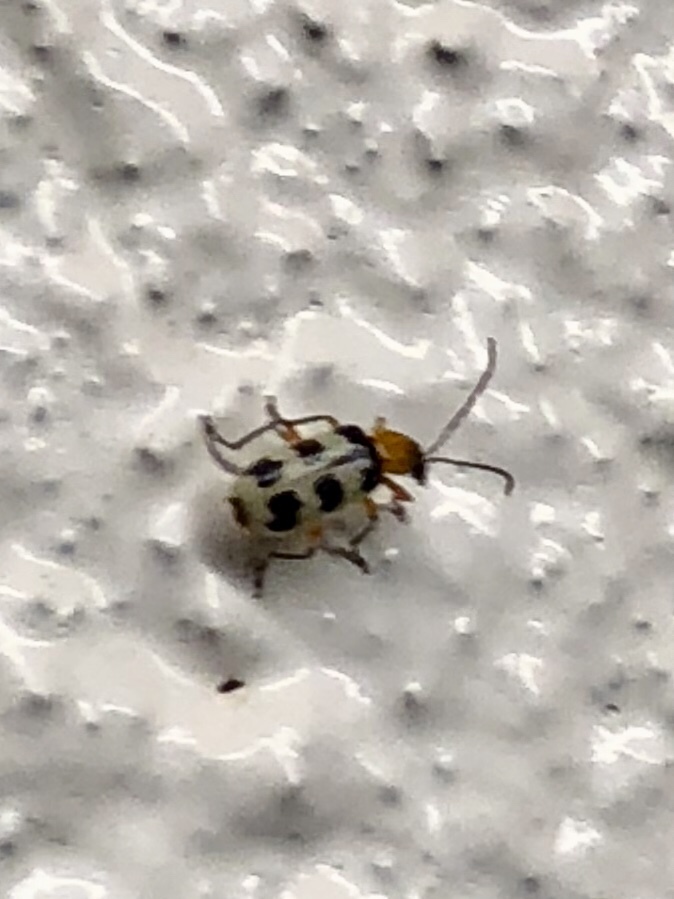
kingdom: Animalia
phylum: Arthropoda
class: Insecta
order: Coleoptera
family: Chrysomelidae
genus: Paranapiacaba
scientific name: Paranapiacaba tricincta
